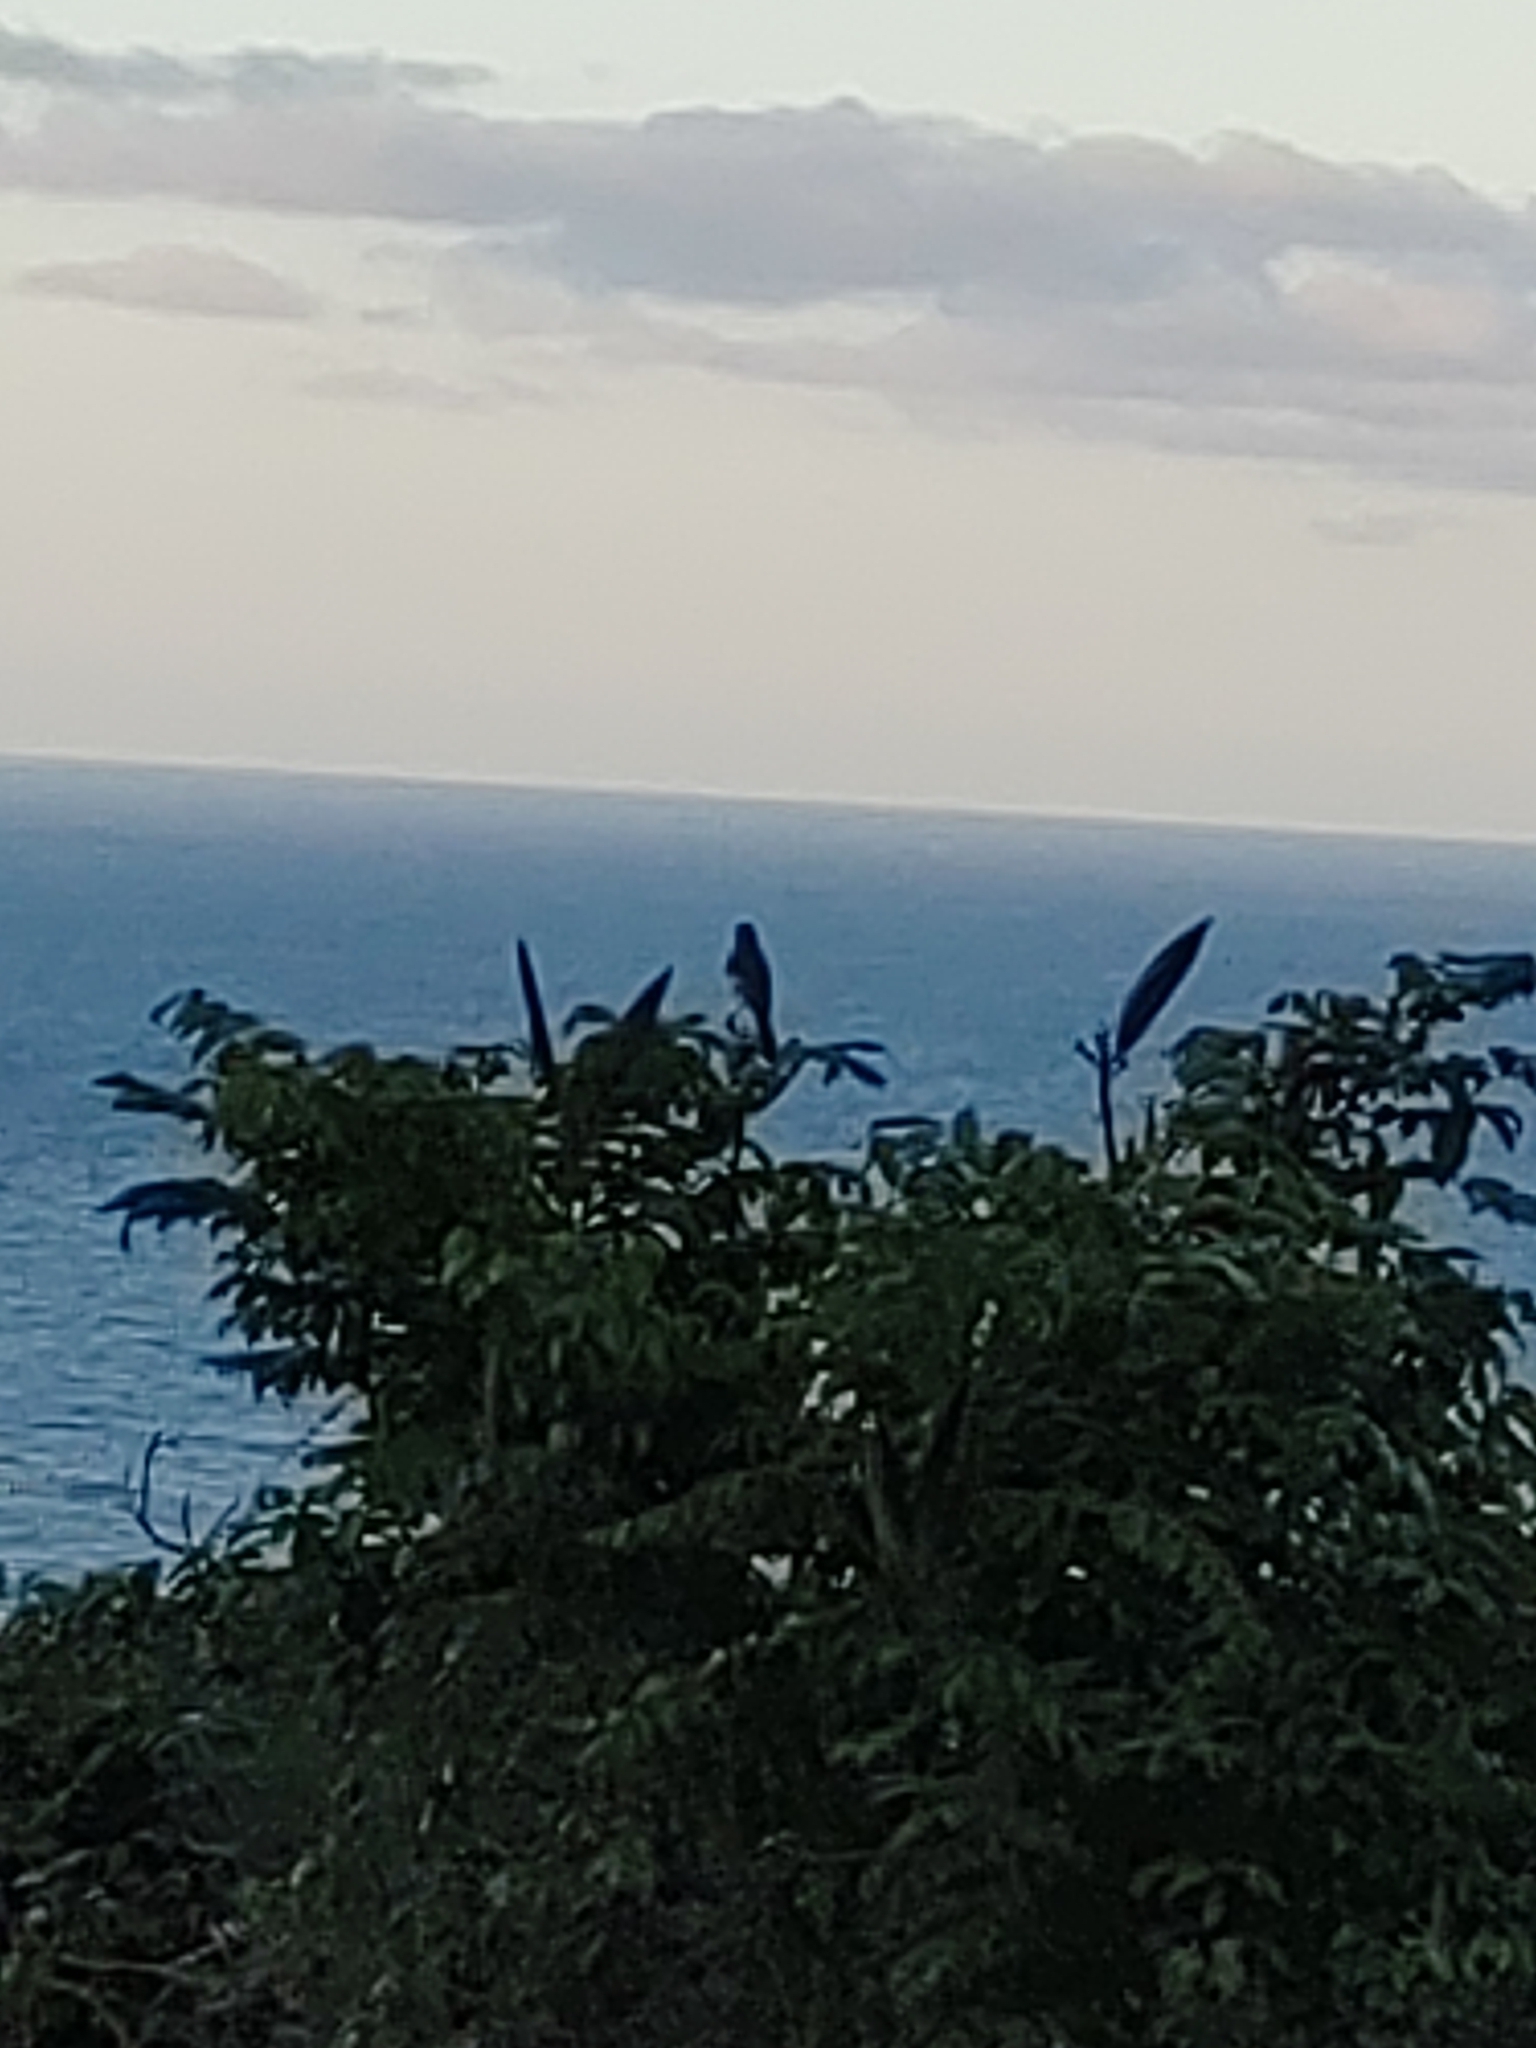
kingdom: Animalia
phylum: Chordata
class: Aves
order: Passeriformes
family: Mimidae
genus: Mimus
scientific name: Mimus polyglottos
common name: Northern mockingbird
